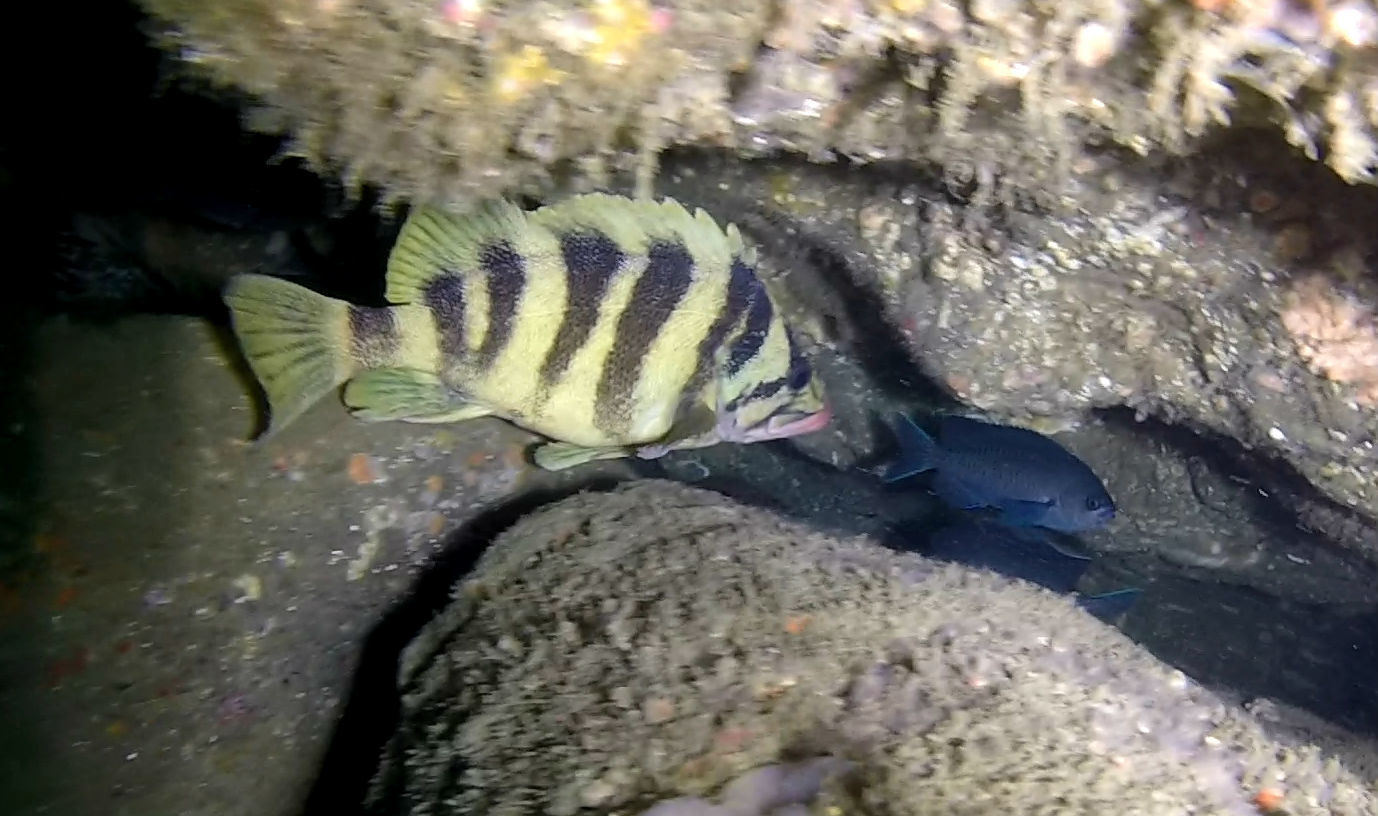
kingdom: Animalia
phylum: Chordata
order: Scorpaeniformes
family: Sebastidae
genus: Sebastes
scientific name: Sebastes serriceps
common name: Treefish
